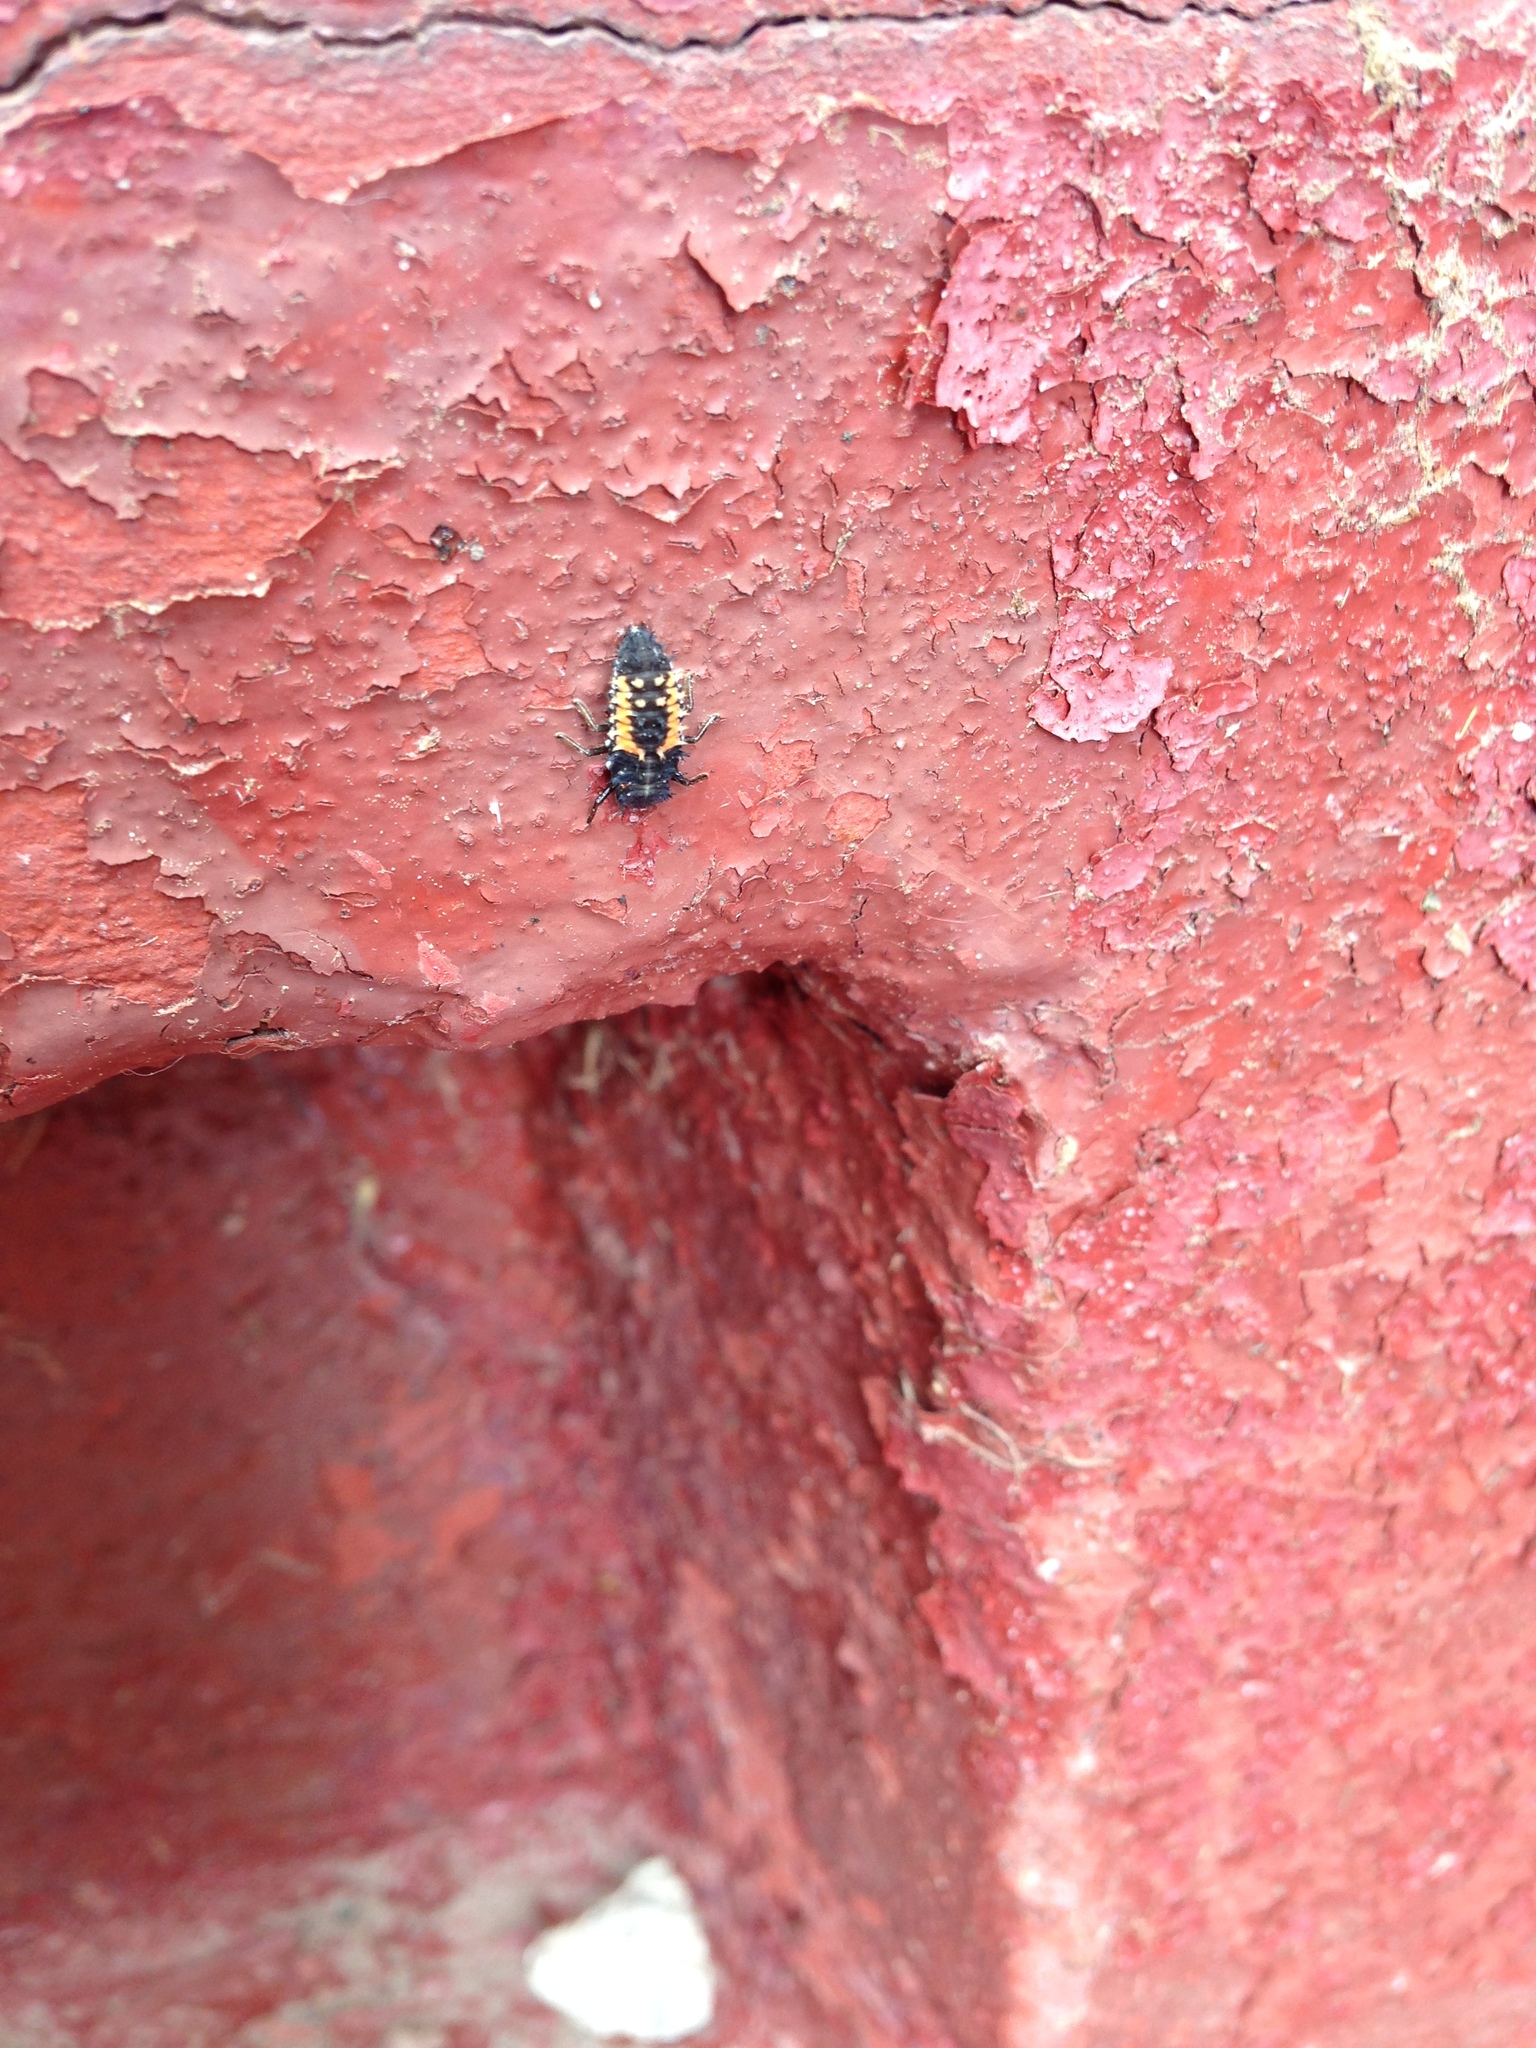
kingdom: Animalia
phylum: Arthropoda
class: Insecta
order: Coleoptera
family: Coccinellidae
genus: Harmonia
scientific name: Harmonia axyridis
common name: Harlequin ladybird
